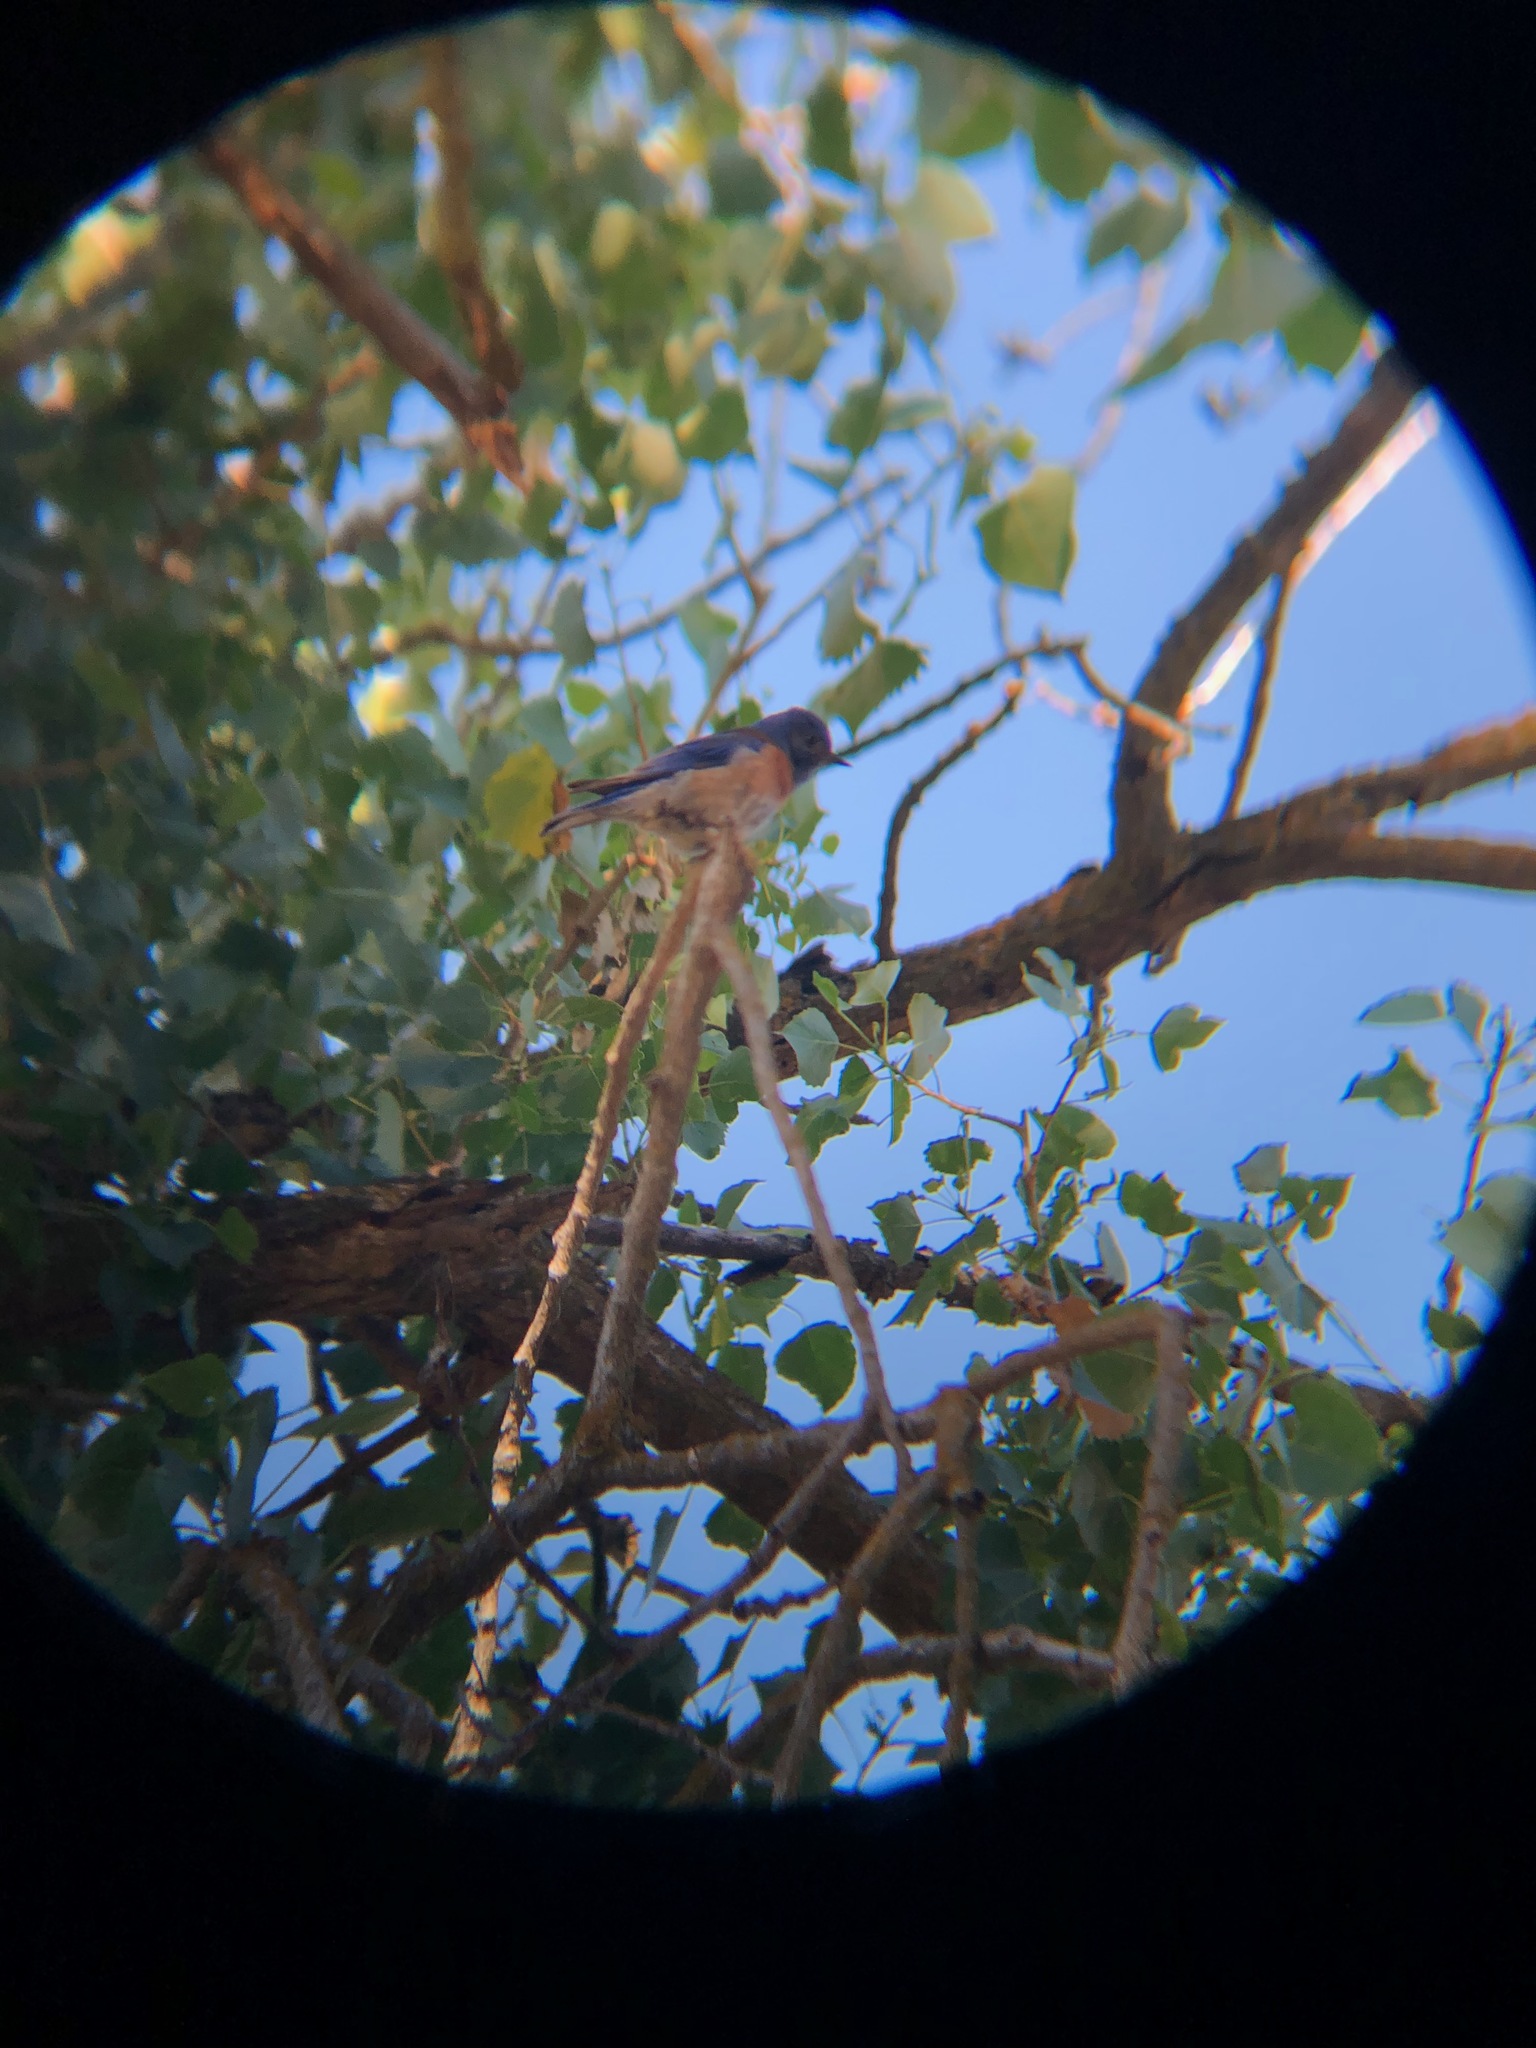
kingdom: Animalia
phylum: Chordata
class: Aves
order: Passeriformes
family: Turdidae
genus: Sialia
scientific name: Sialia mexicana
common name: Western bluebird
